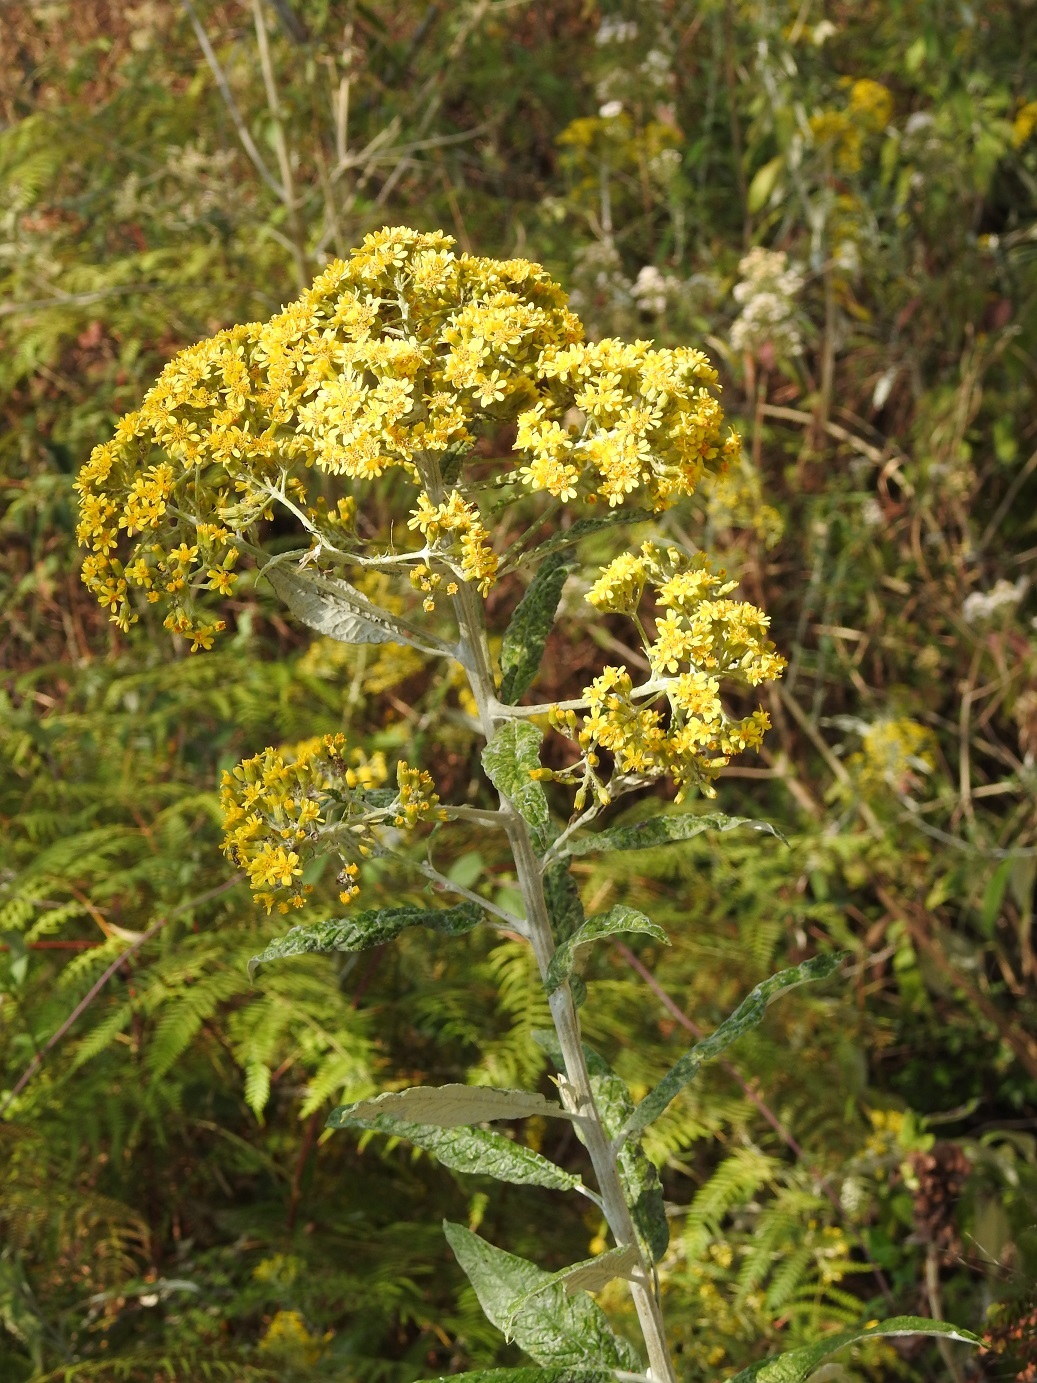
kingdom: Plantae
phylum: Tracheophyta
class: Magnoliopsida
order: Asterales
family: Asteraceae
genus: Zemisia
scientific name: Zemisia thomasii
